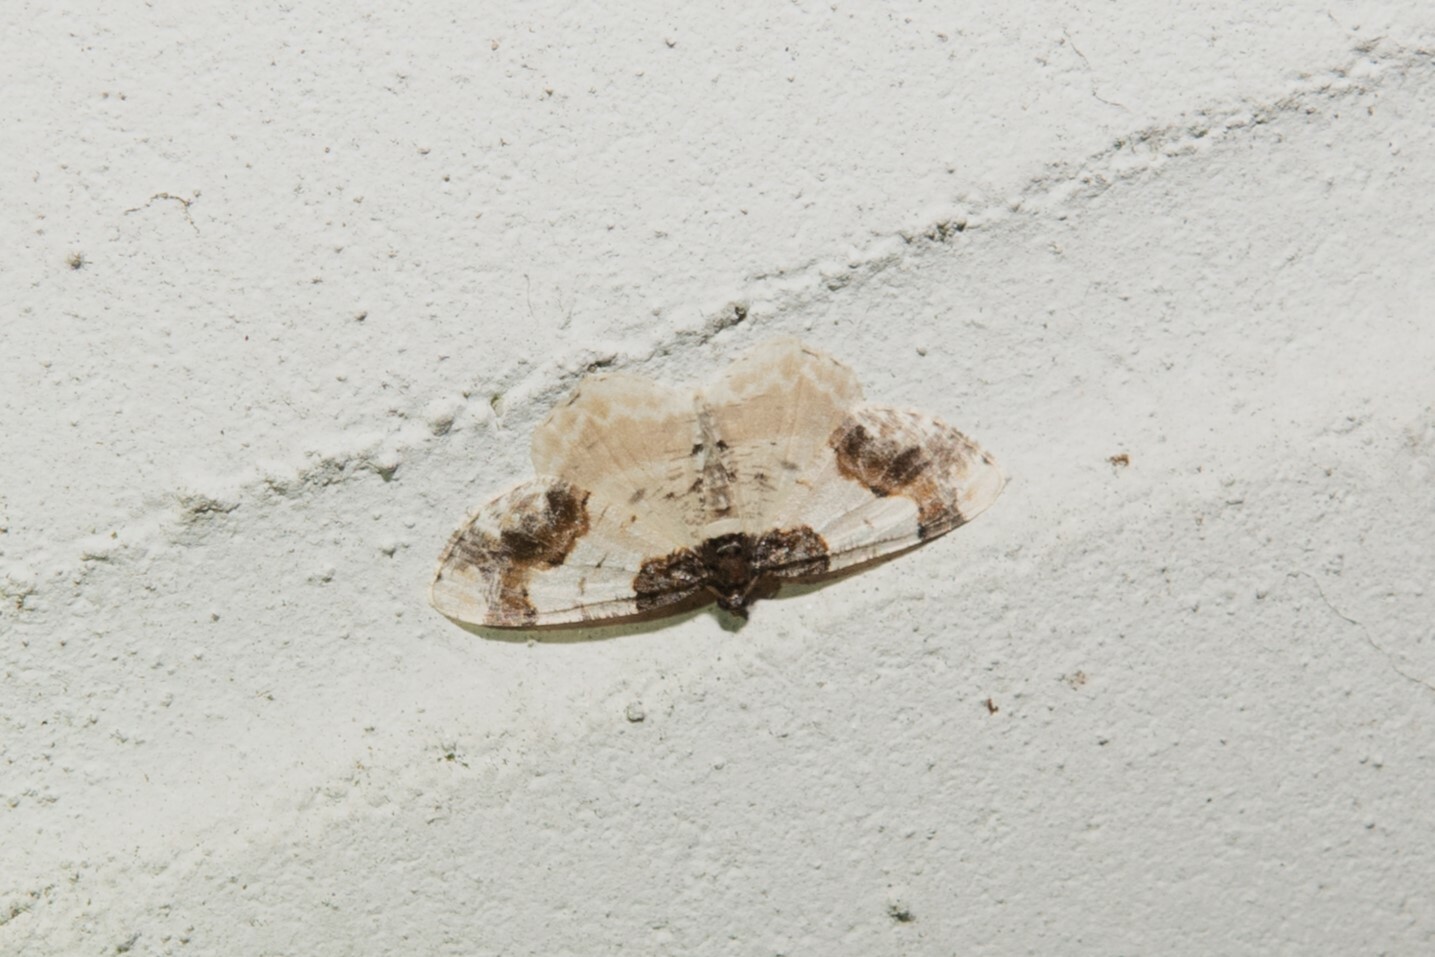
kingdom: Animalia
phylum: Arthropoda
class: Insecta
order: Lepidoptera
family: Geometridae
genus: Ligdia
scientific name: Ligdia adustata
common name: Scorched carpet
